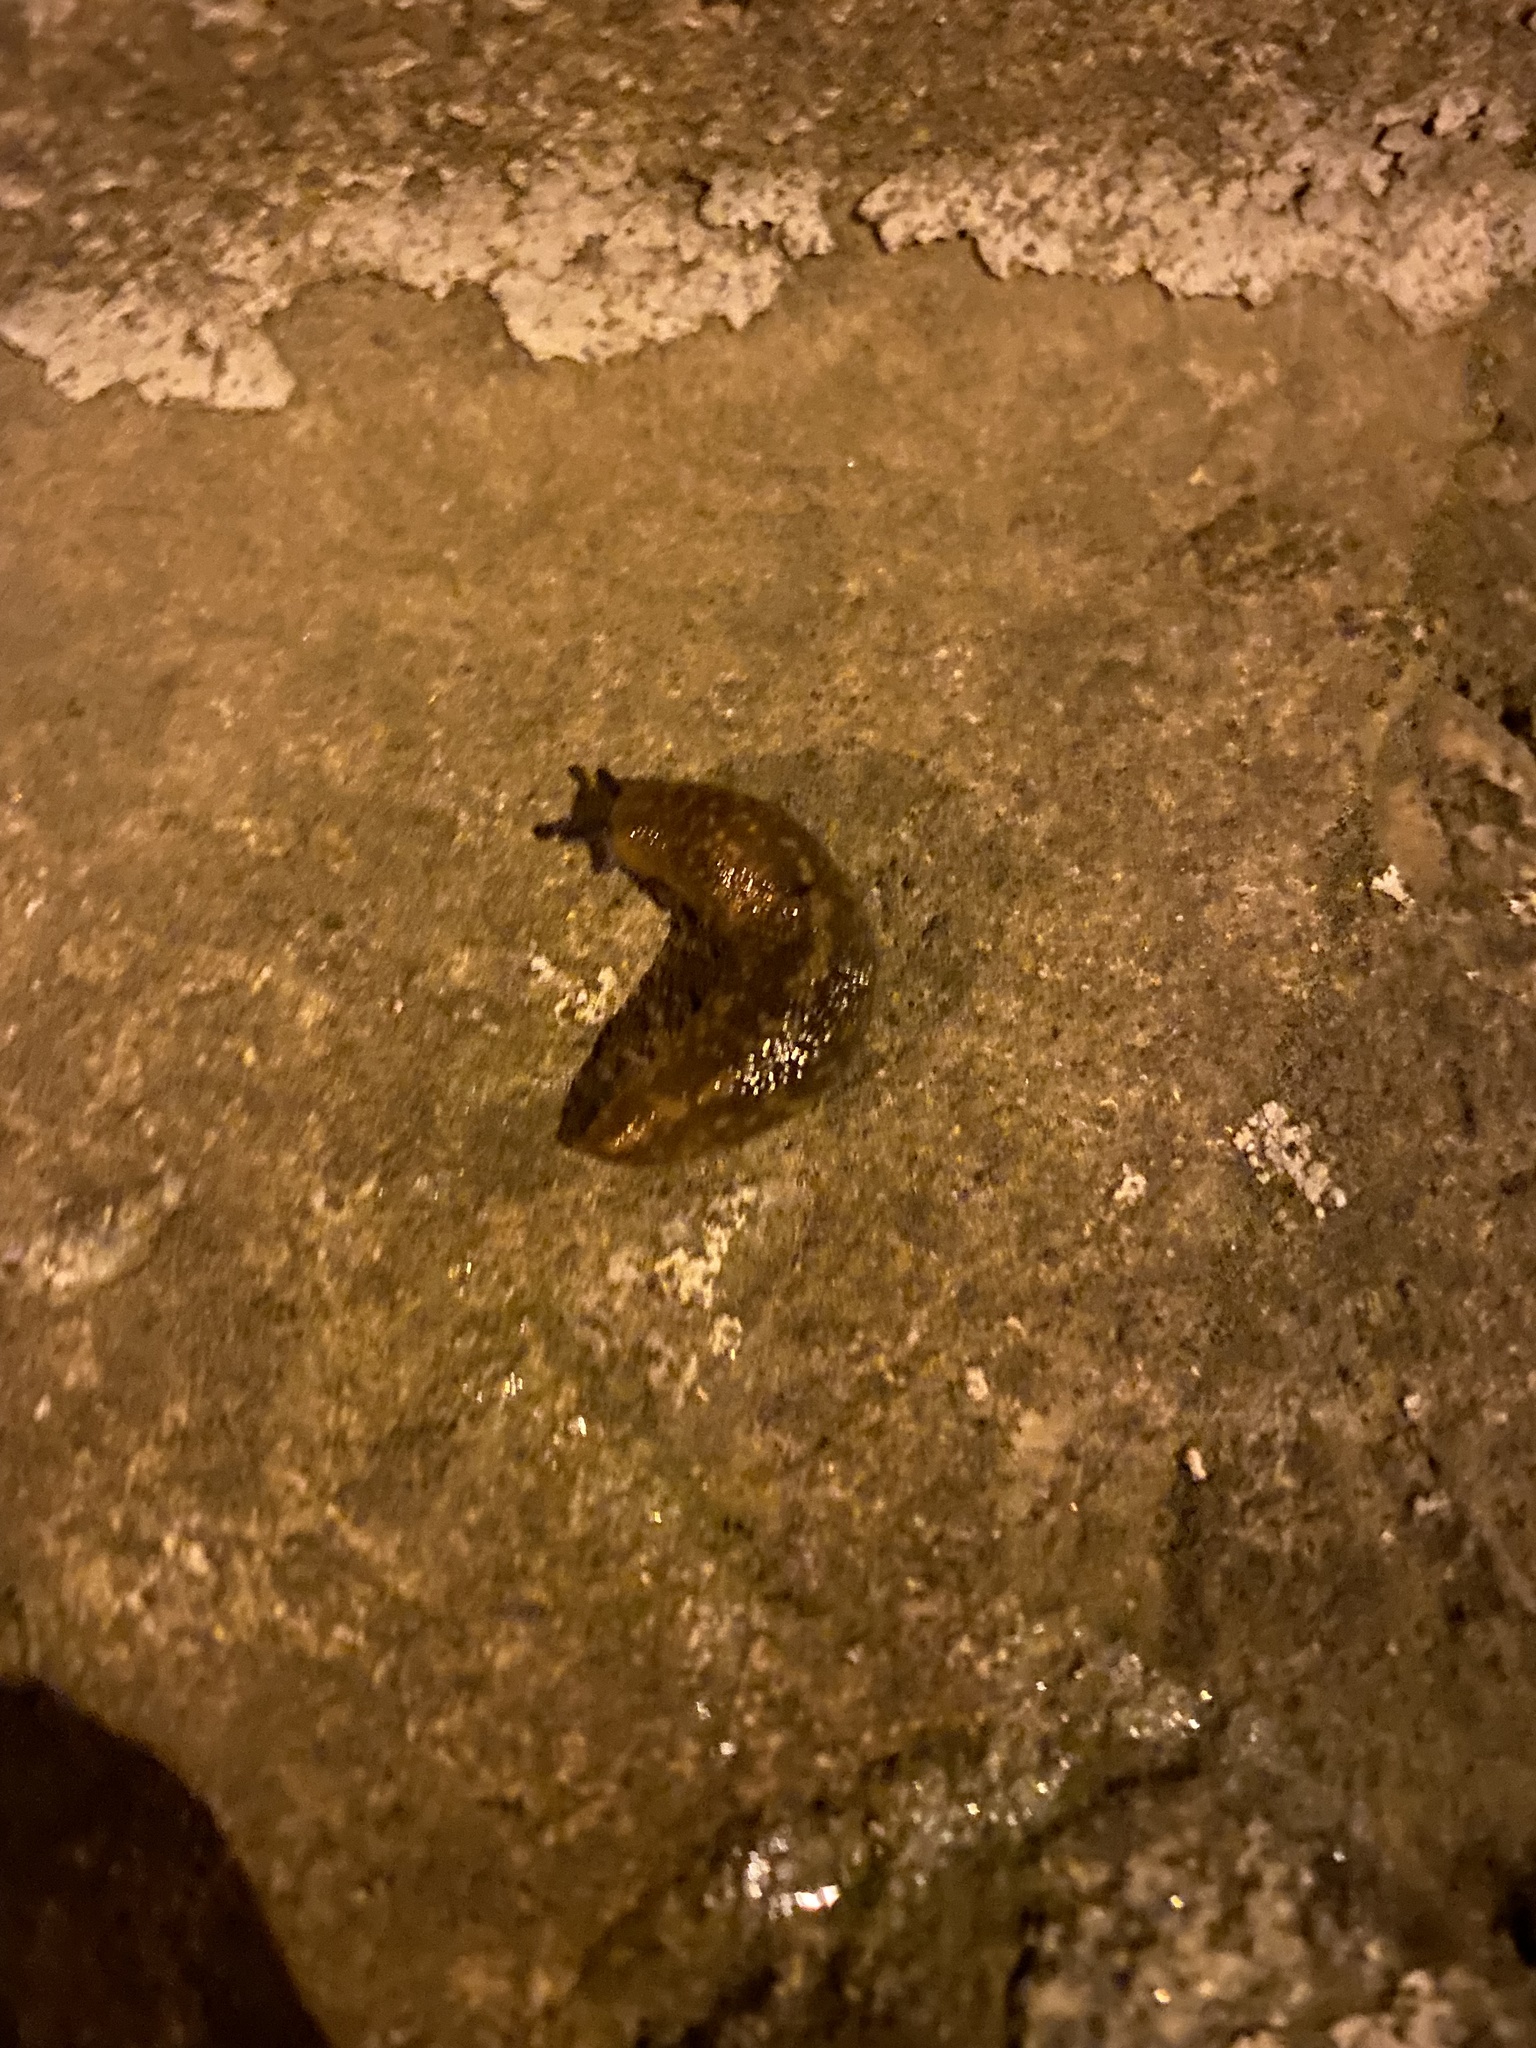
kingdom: Animalia
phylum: Mollusca
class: Gastropoda
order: Stylommatophora
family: Limacidae
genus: Limacus
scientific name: Limacus
